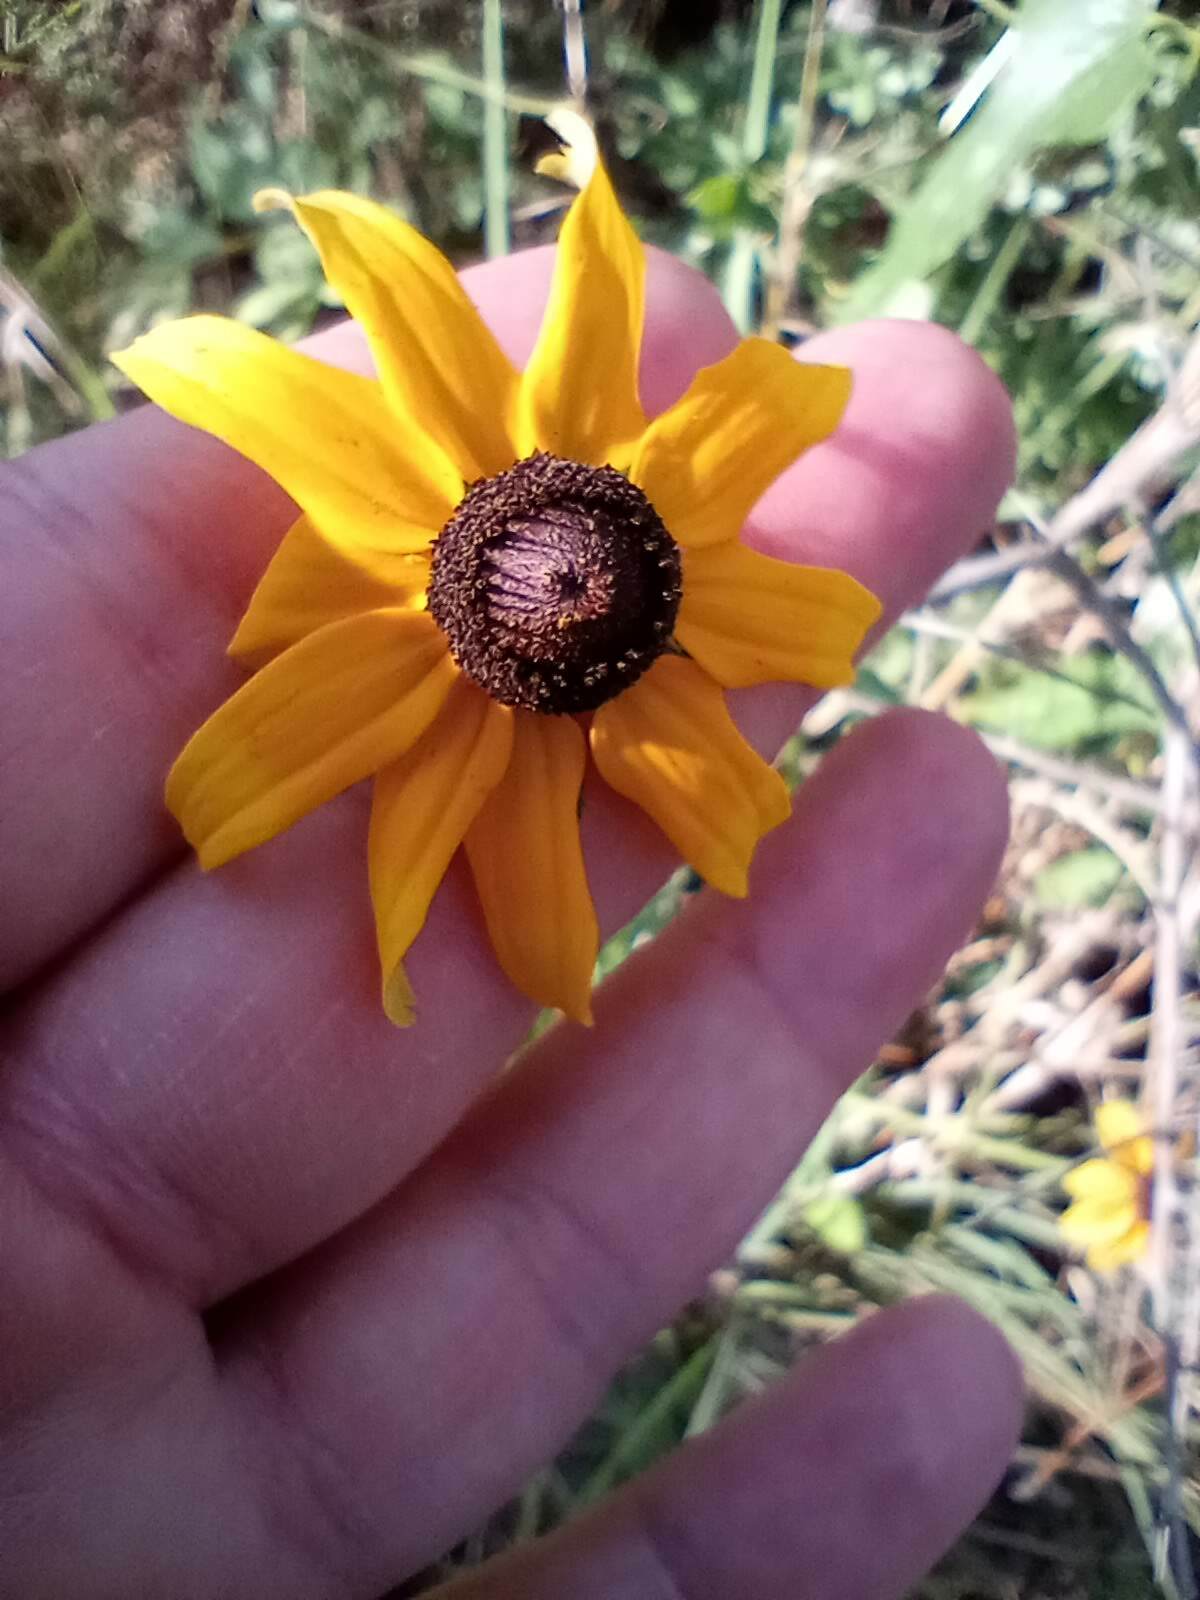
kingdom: Plantae
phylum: Tracheophyta
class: Magnoliopsida
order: Asterales
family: Asteraceae
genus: Rudbeckia
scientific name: Rudbeckia hirta
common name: Black-eyed-susan
